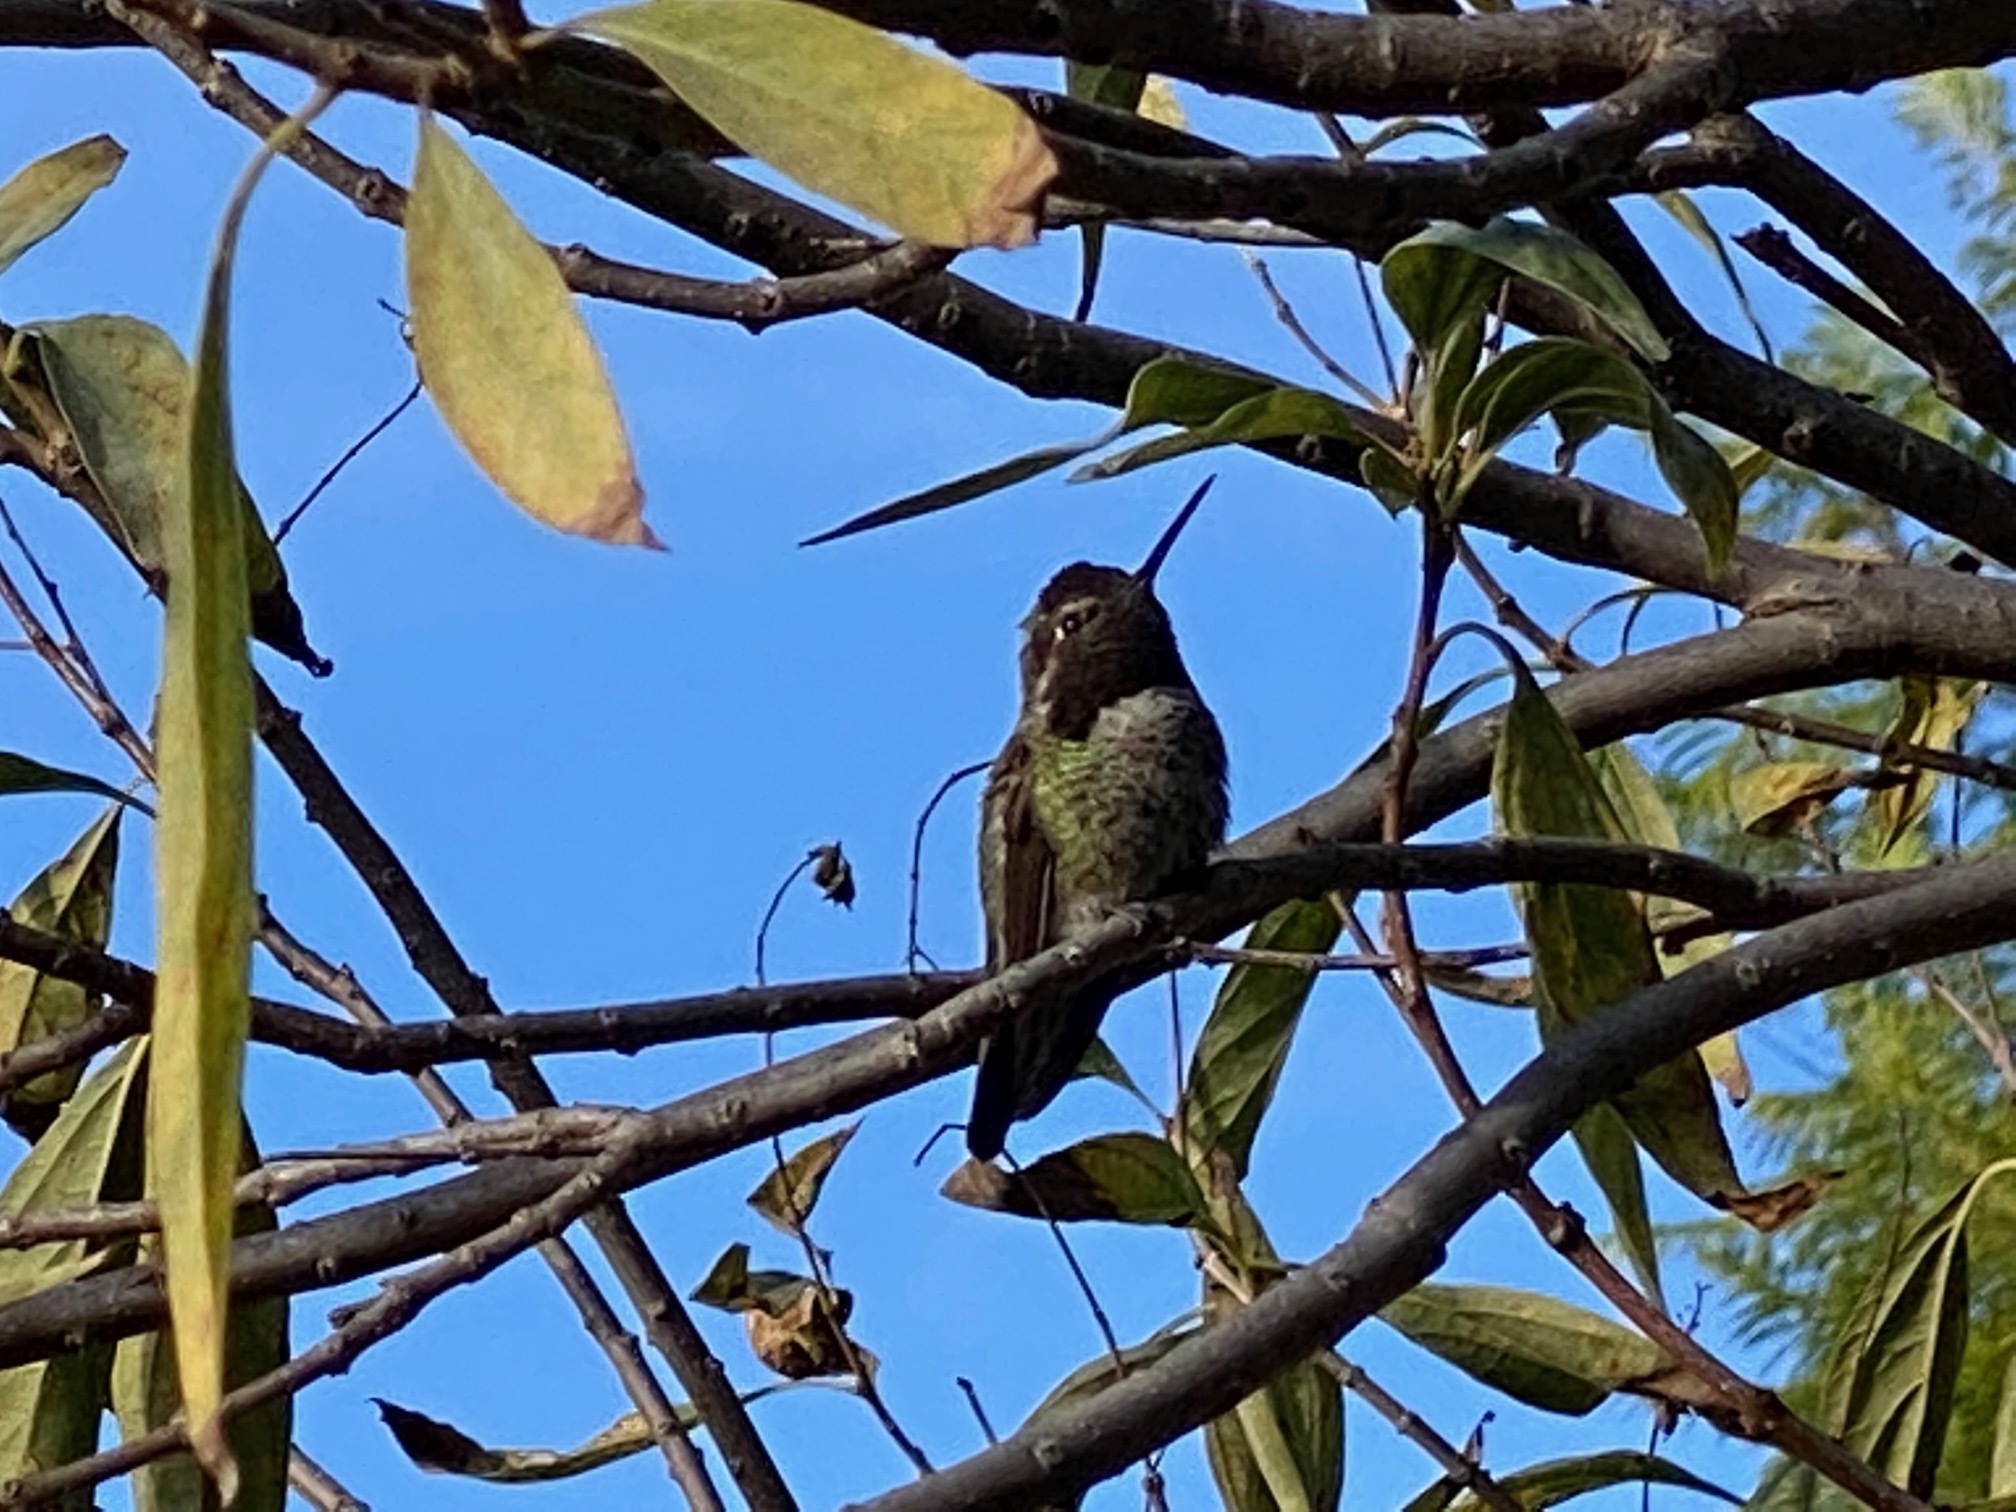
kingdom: Animalia
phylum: Chordata
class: Aves
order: Apodiformes
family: Trochilidae
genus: Calypte
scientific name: Calypte anna
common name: Anna's hummingbird
